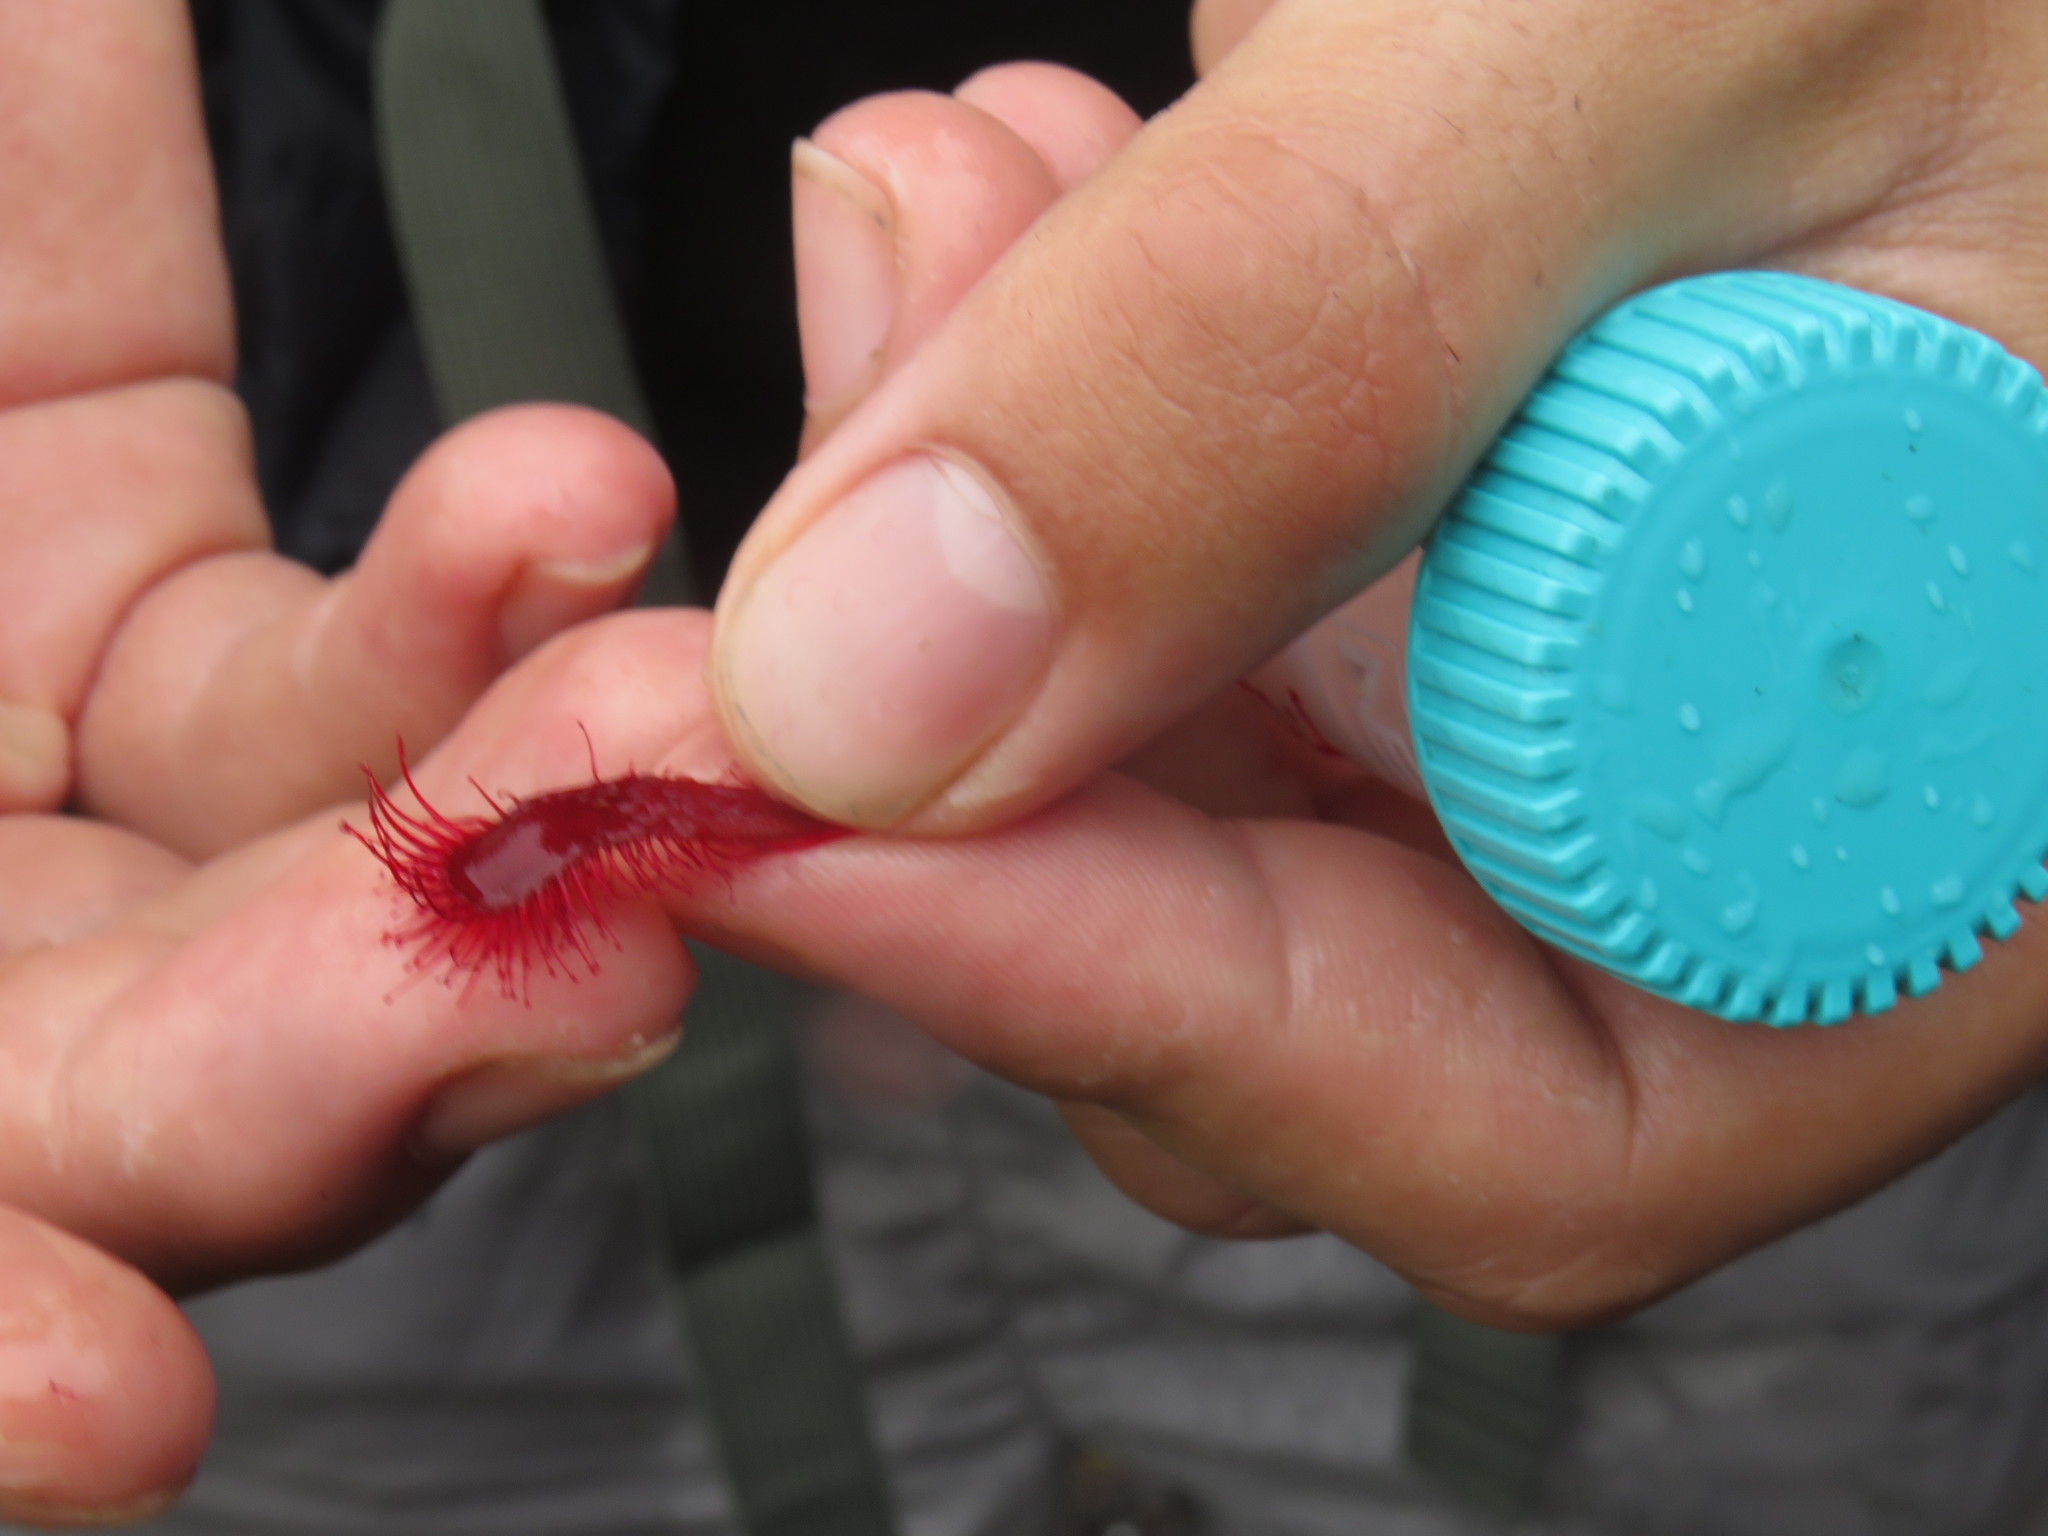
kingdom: Plantae
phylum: Tracheophyta
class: Magnoliopsida
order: Caryophyllales
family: Droseraceae
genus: Drosera
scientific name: Drosera slackii
